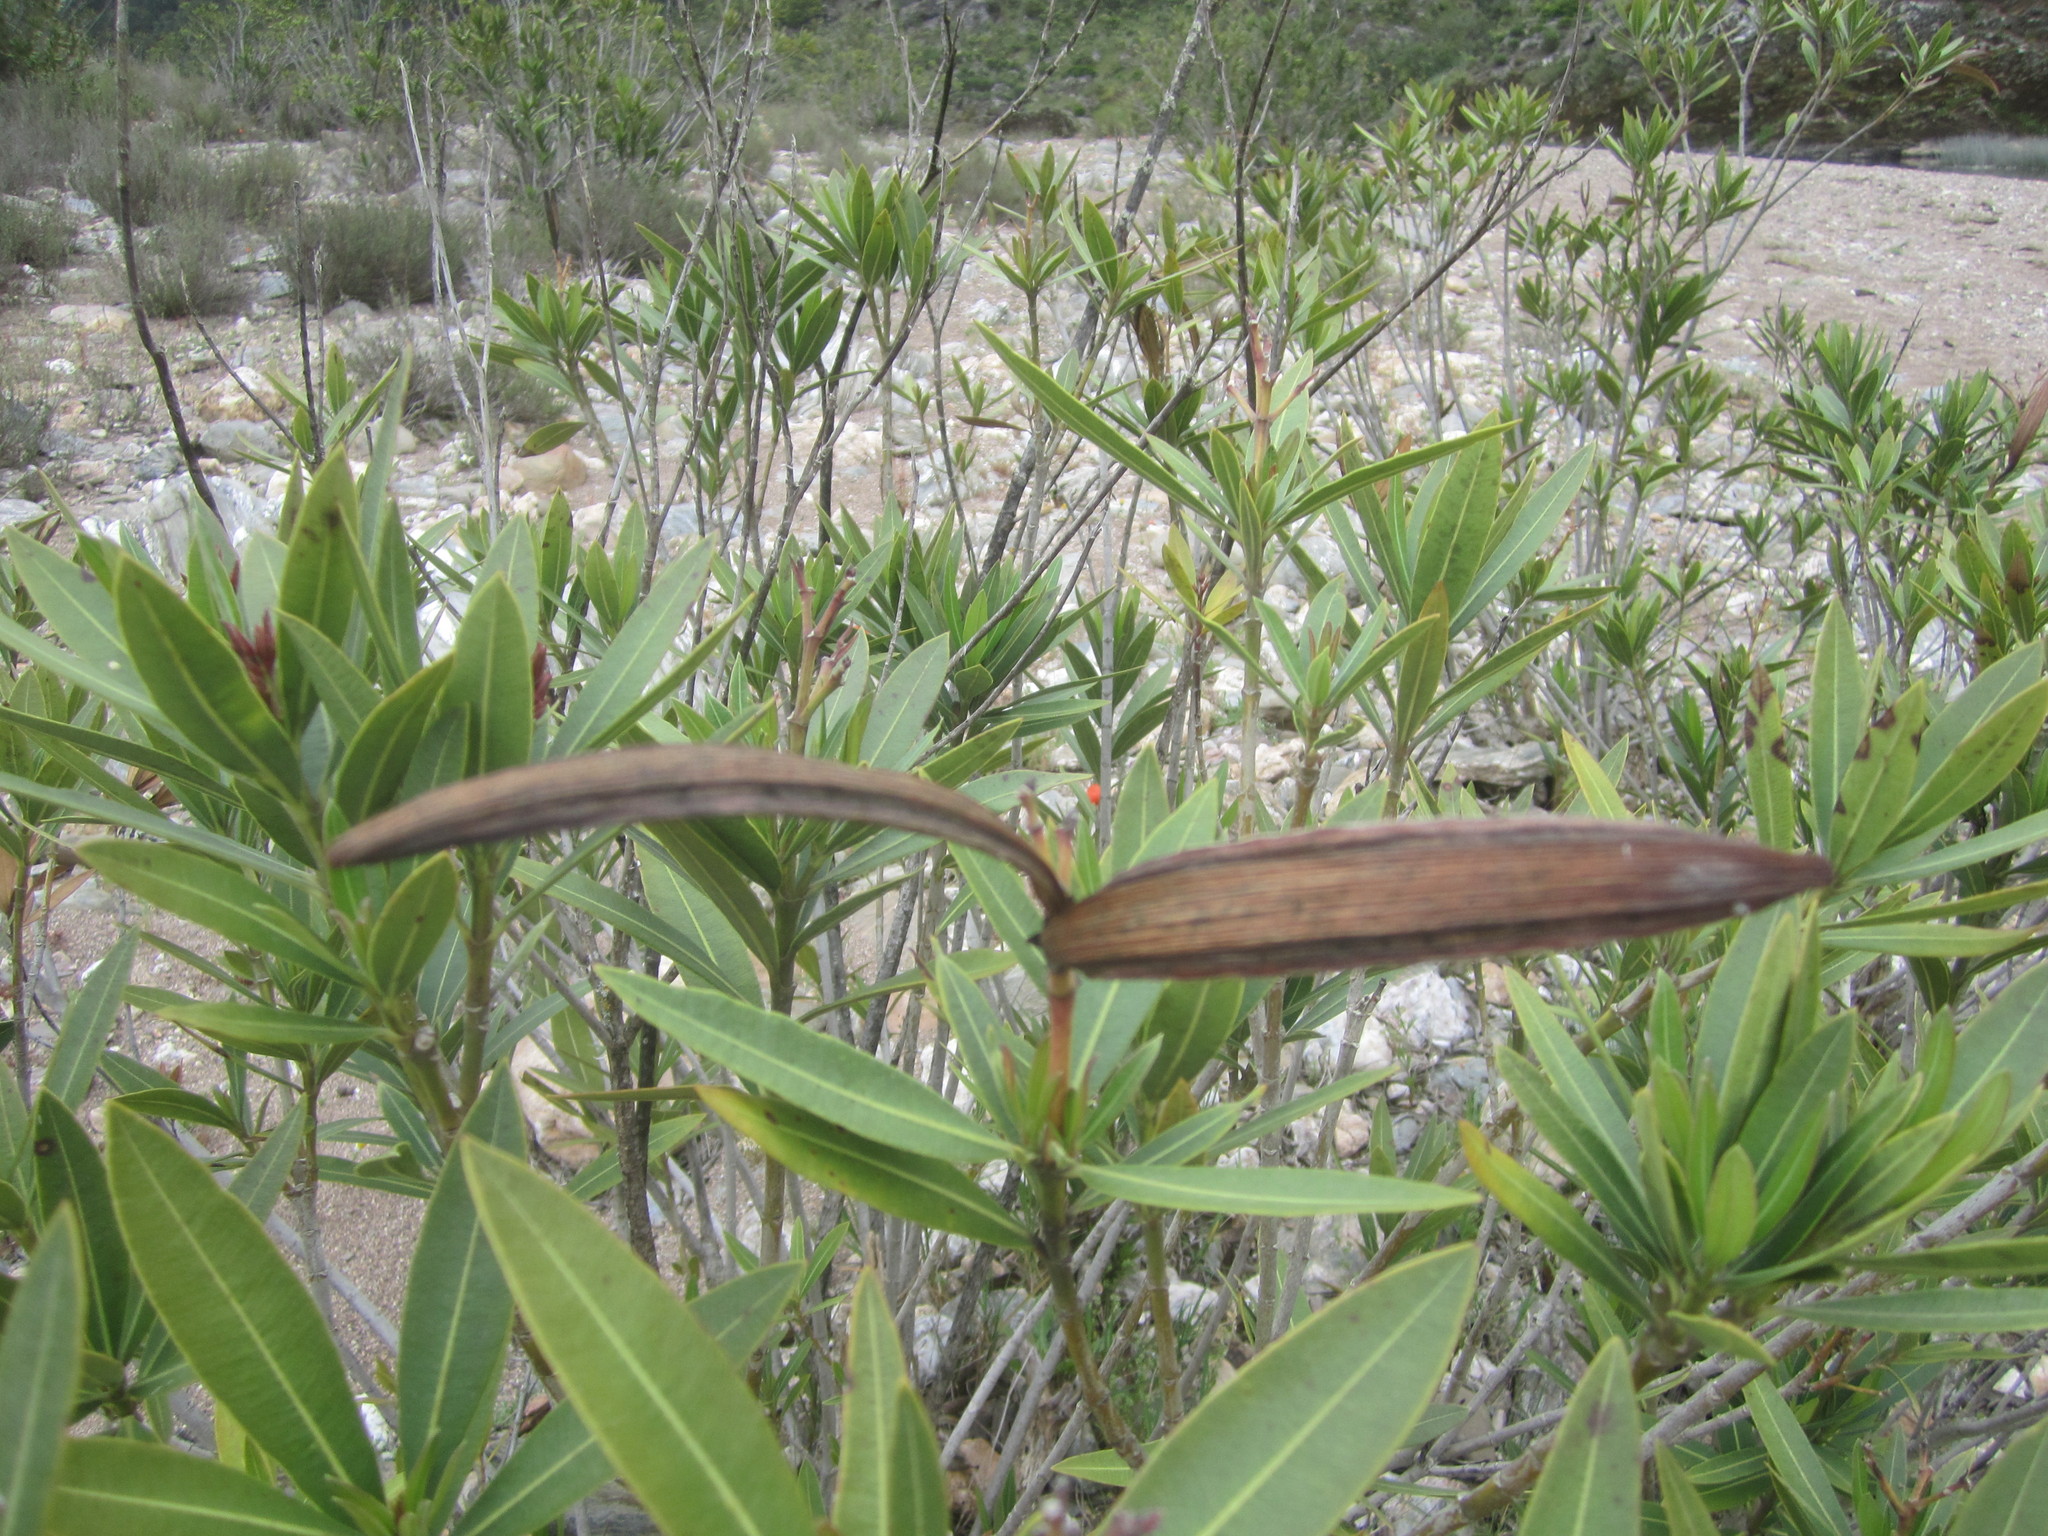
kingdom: Plantae
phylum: Tracheophyta
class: Magnoliopsida
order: Gentianales
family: Apocynaceae
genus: Nerium
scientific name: Nerium oleander
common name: Oleander
